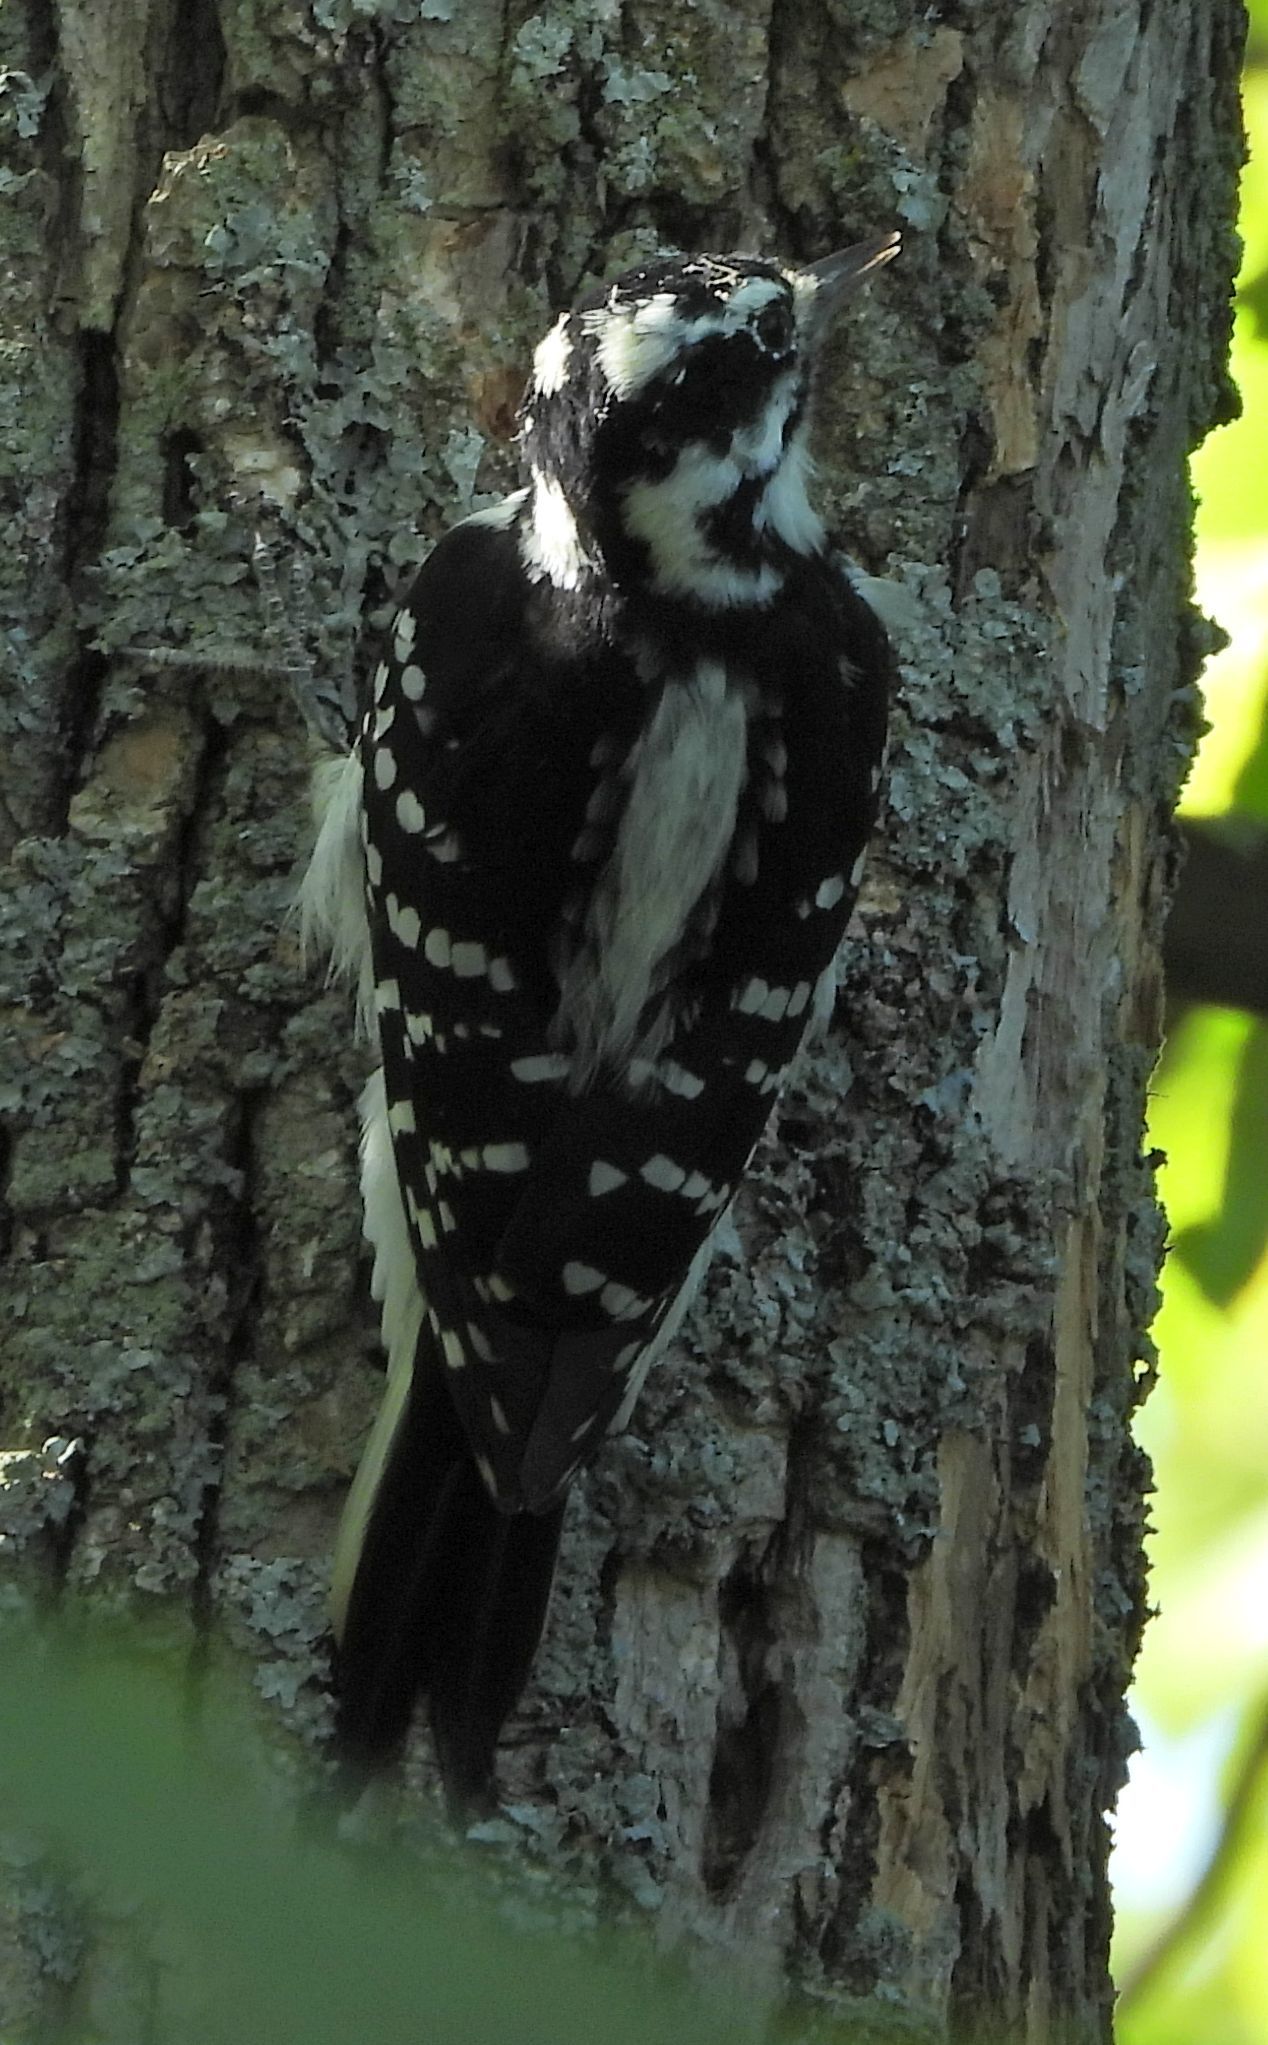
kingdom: Animalia
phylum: Chordata
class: Aves
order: Piciformes
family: Picidae
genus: Leuconotopicus
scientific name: Leuconotopicus villosus
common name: Hairy woodpecker
